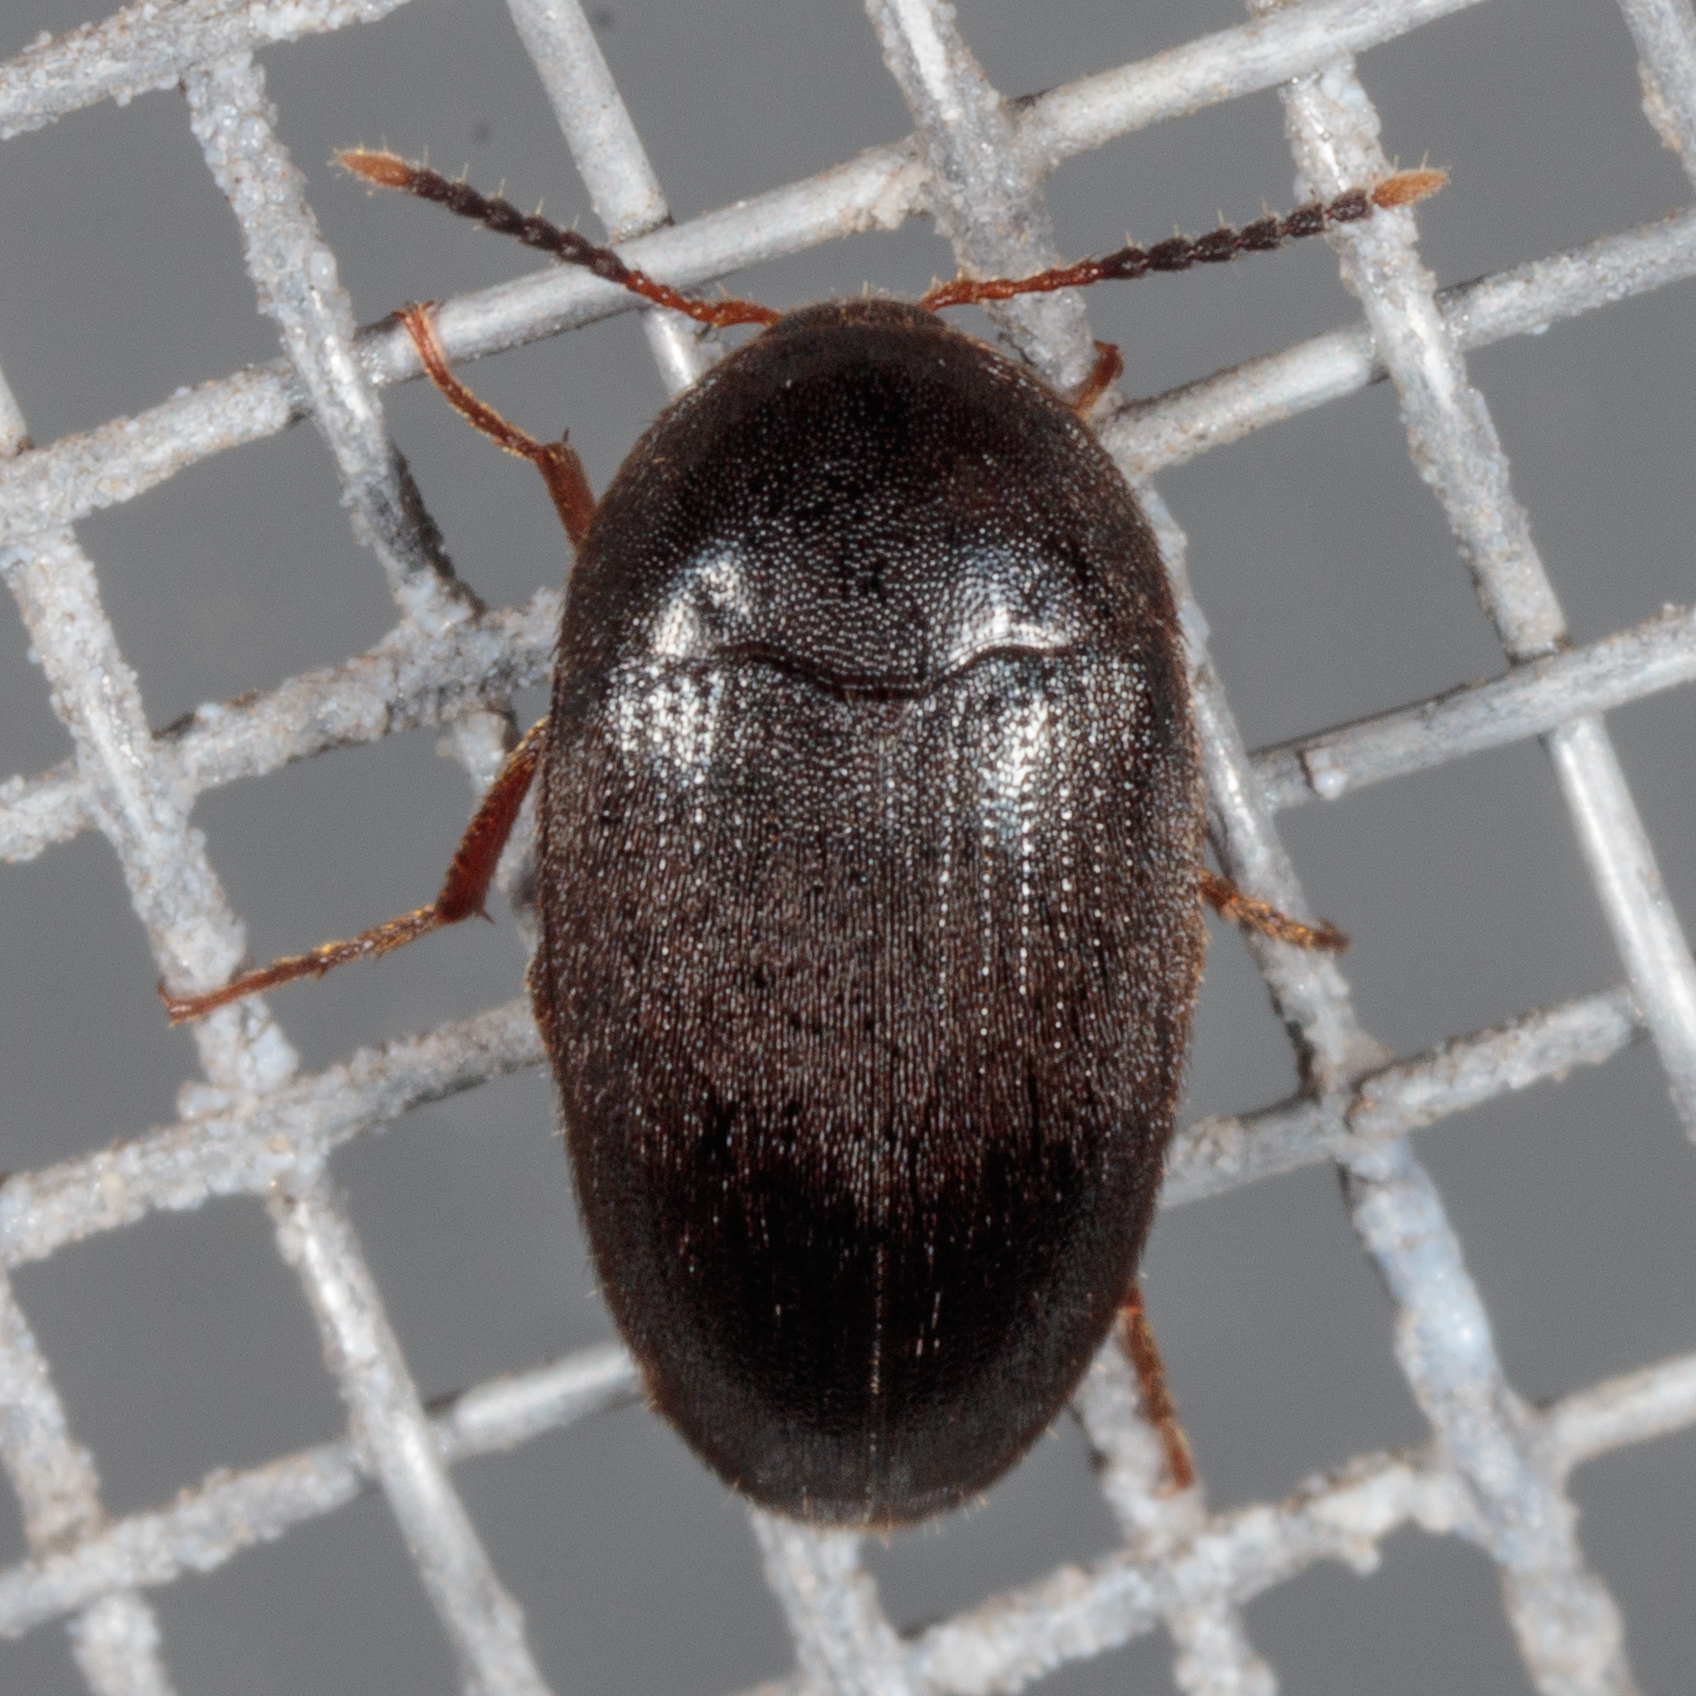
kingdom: Animalia
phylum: Arthropoda
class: Insecta
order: Coleoptera
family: Tetratomidae
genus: Eustrophopsis
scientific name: Eustrophopsis bicolor
